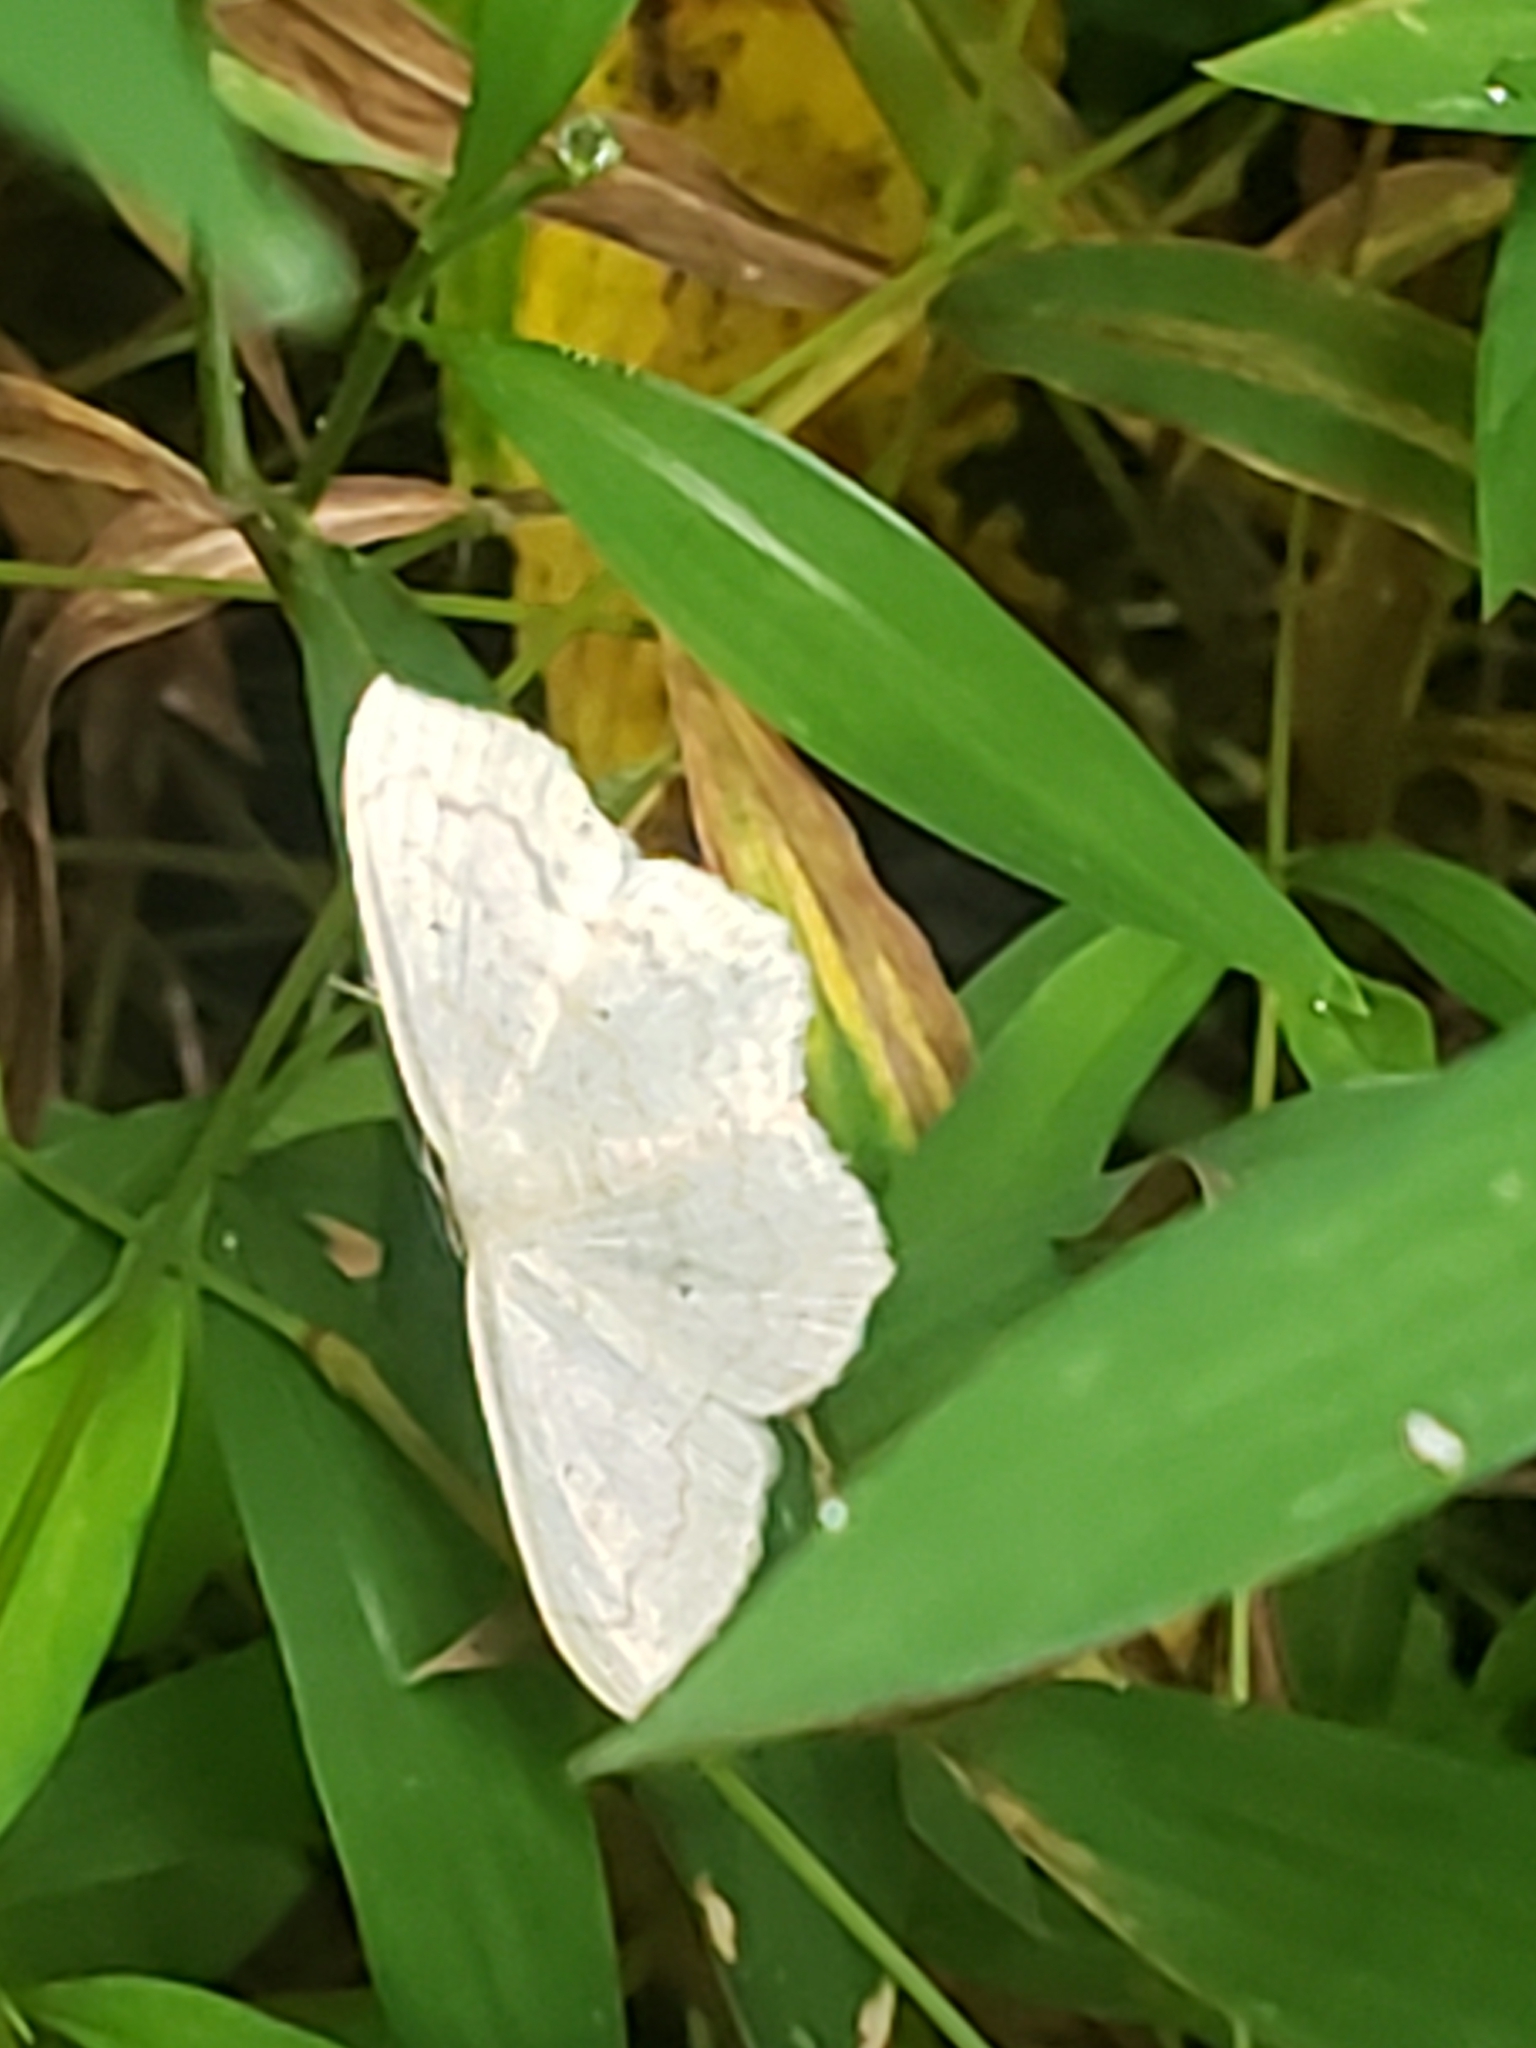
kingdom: Animalia
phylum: Arthropoda
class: Insecta
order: Lepidoptera
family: Geometridae
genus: Scopula
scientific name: Scopula limboundata
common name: Large lace border
